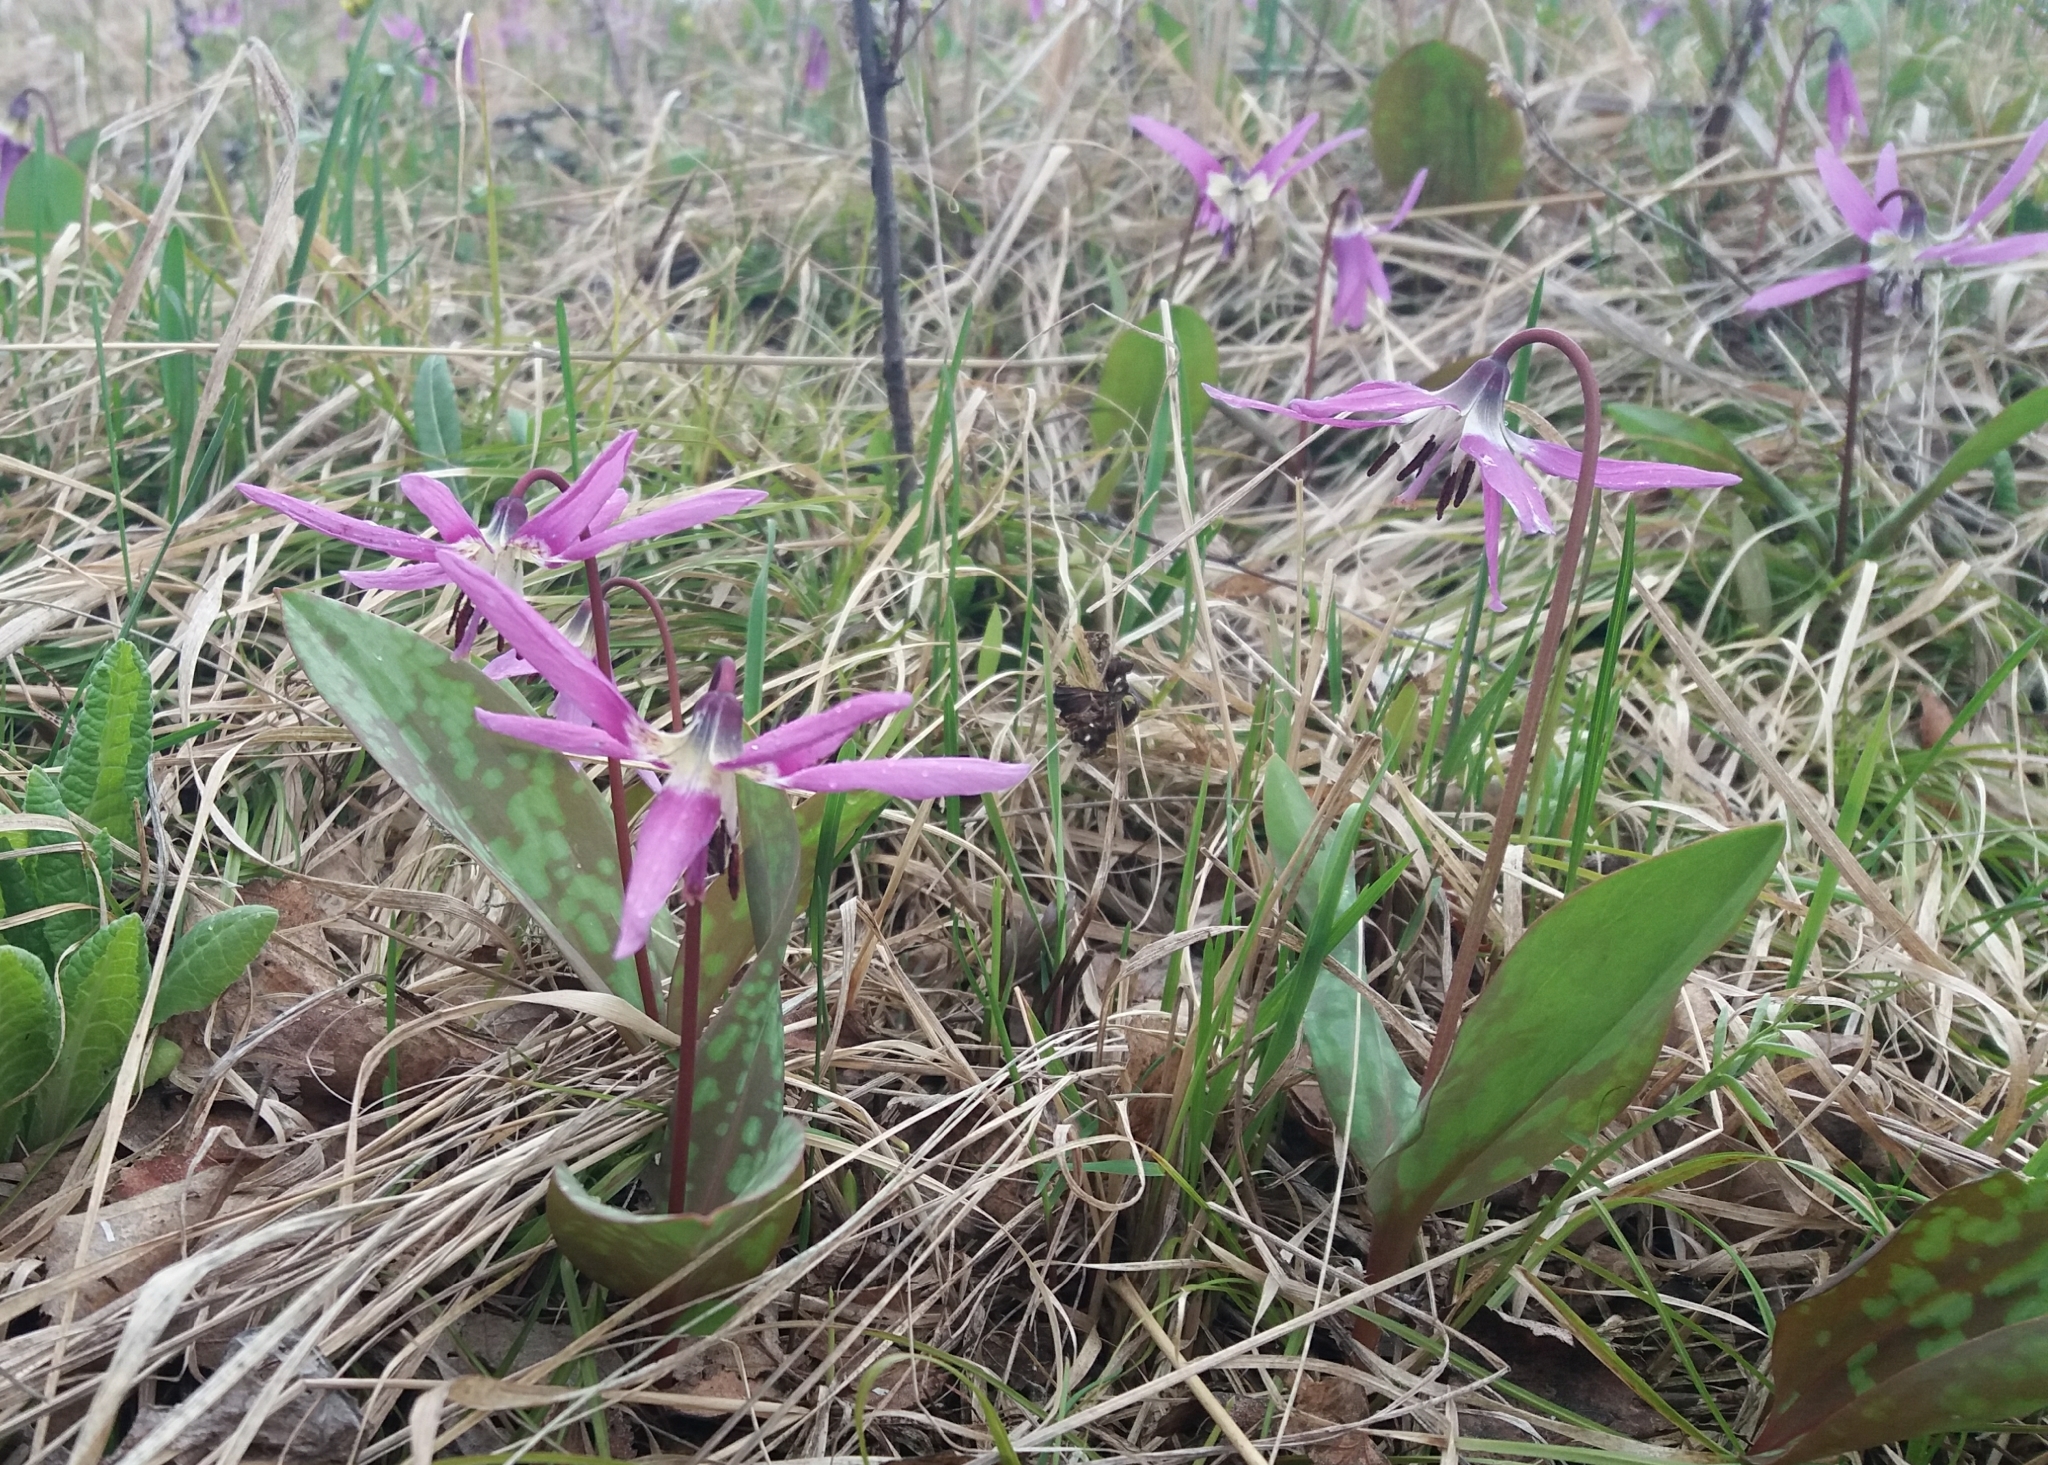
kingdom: Plantae
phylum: Tracheophyta
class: Liliopsida
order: Liliales
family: Liliaceae
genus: Erythronium
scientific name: Erythronium sulevii
